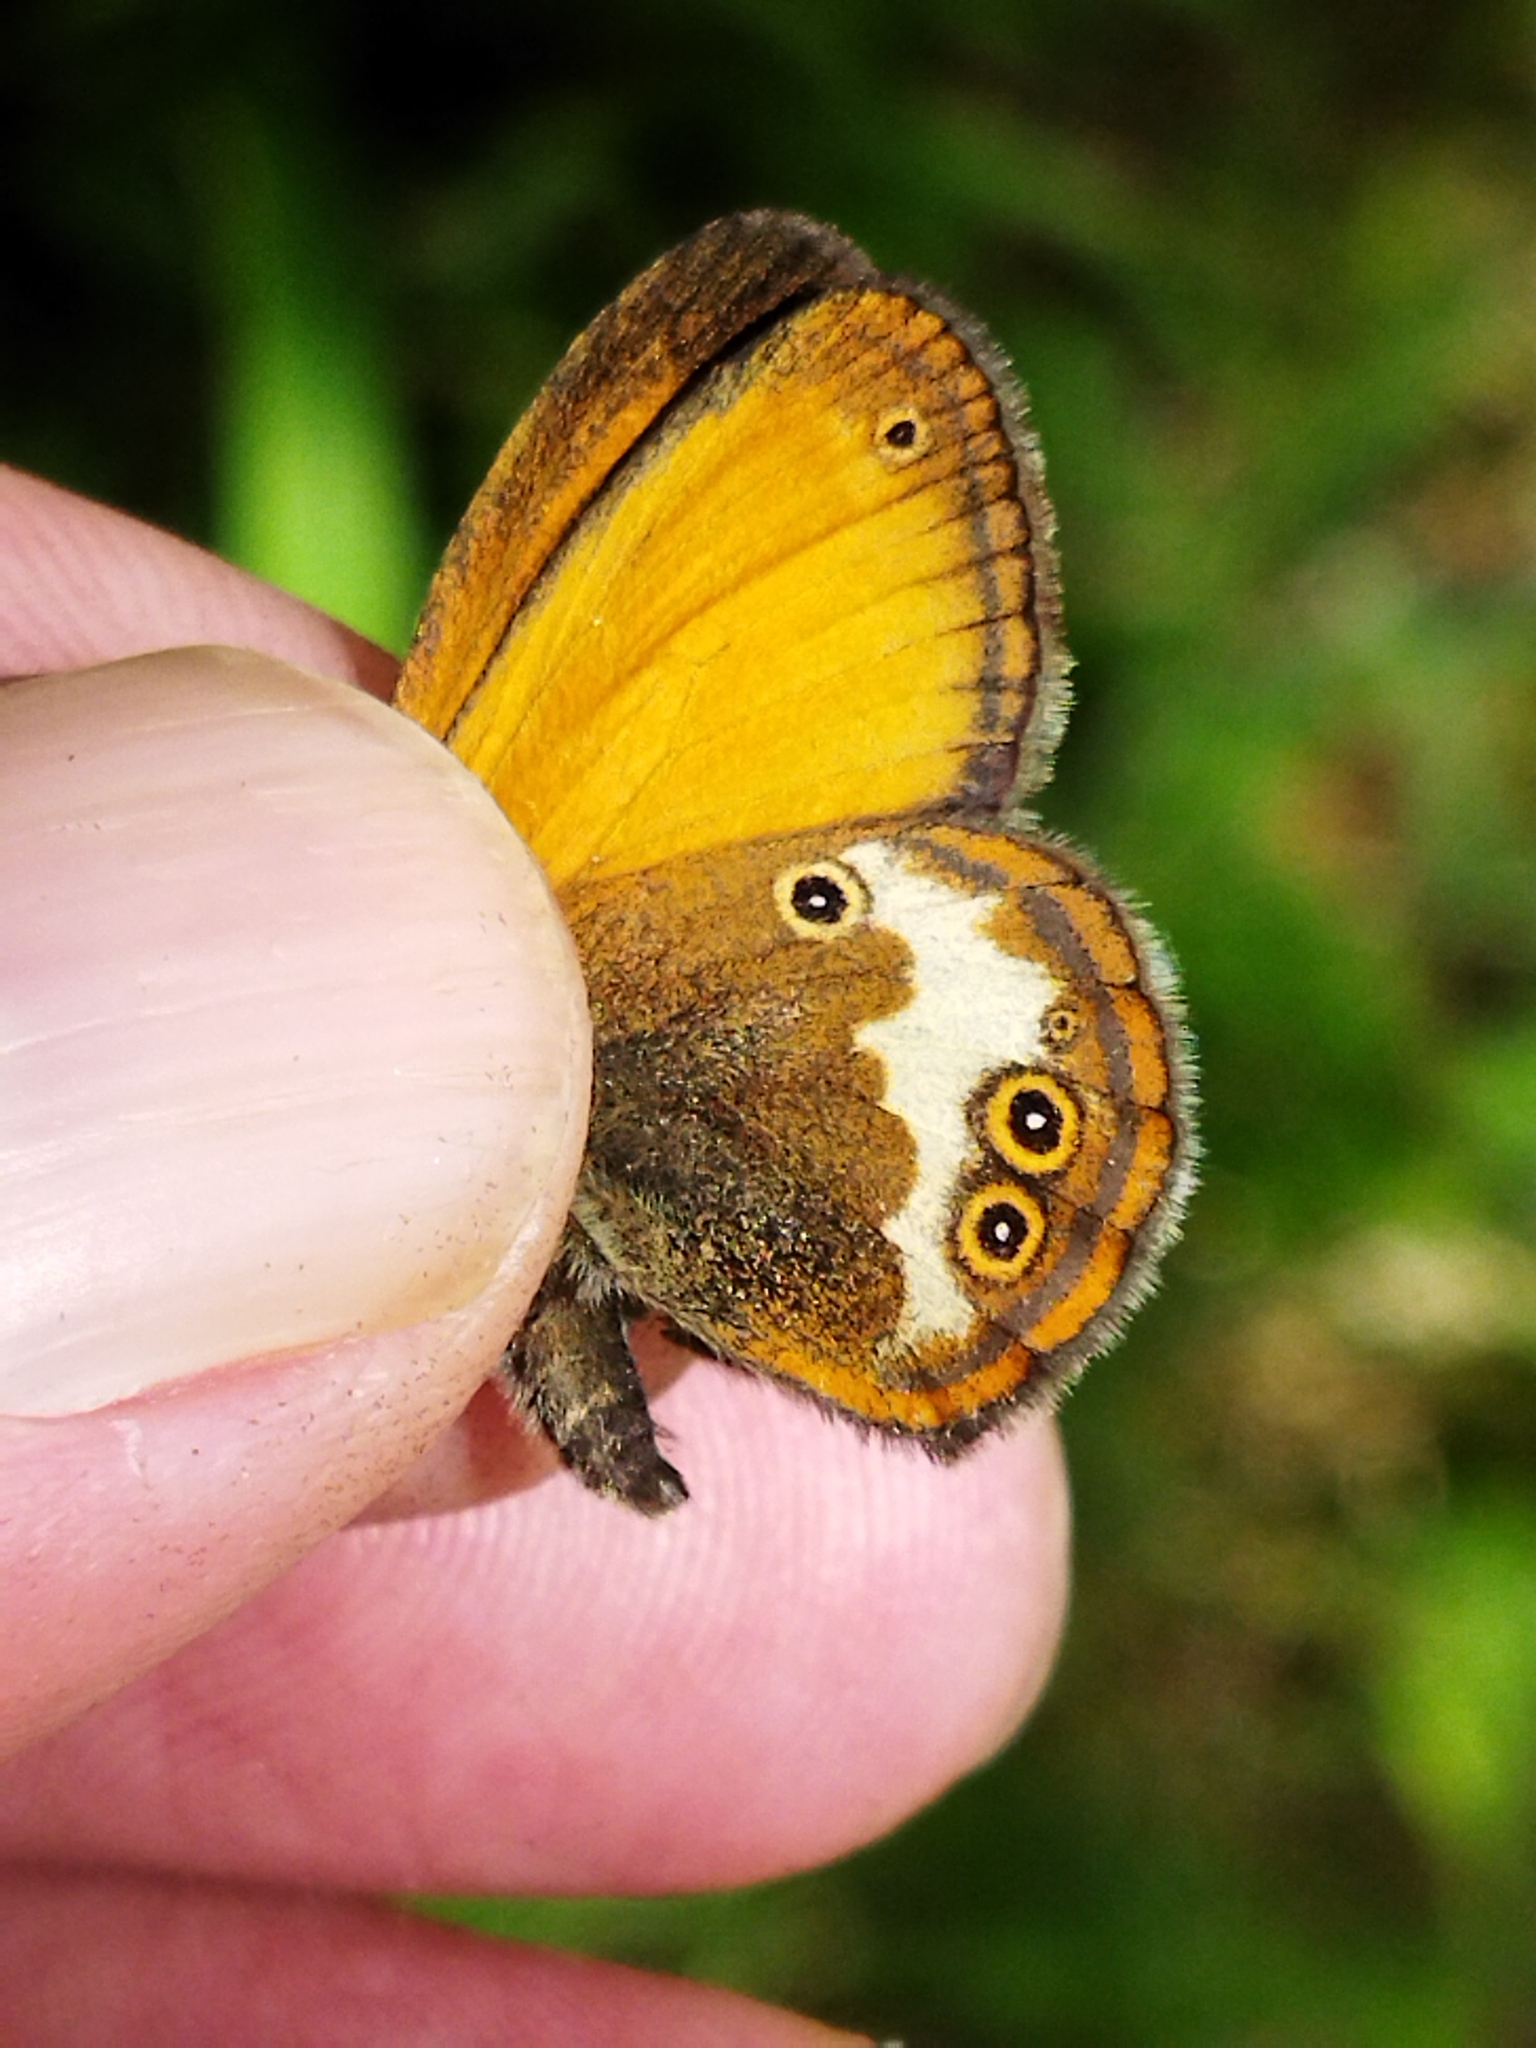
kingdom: Animalia
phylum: Arthropoda
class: Insecta
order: Lepidoptera
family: Nymphalidae
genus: Coenonympha
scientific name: Coenonympha arcania
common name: Pearly heath
